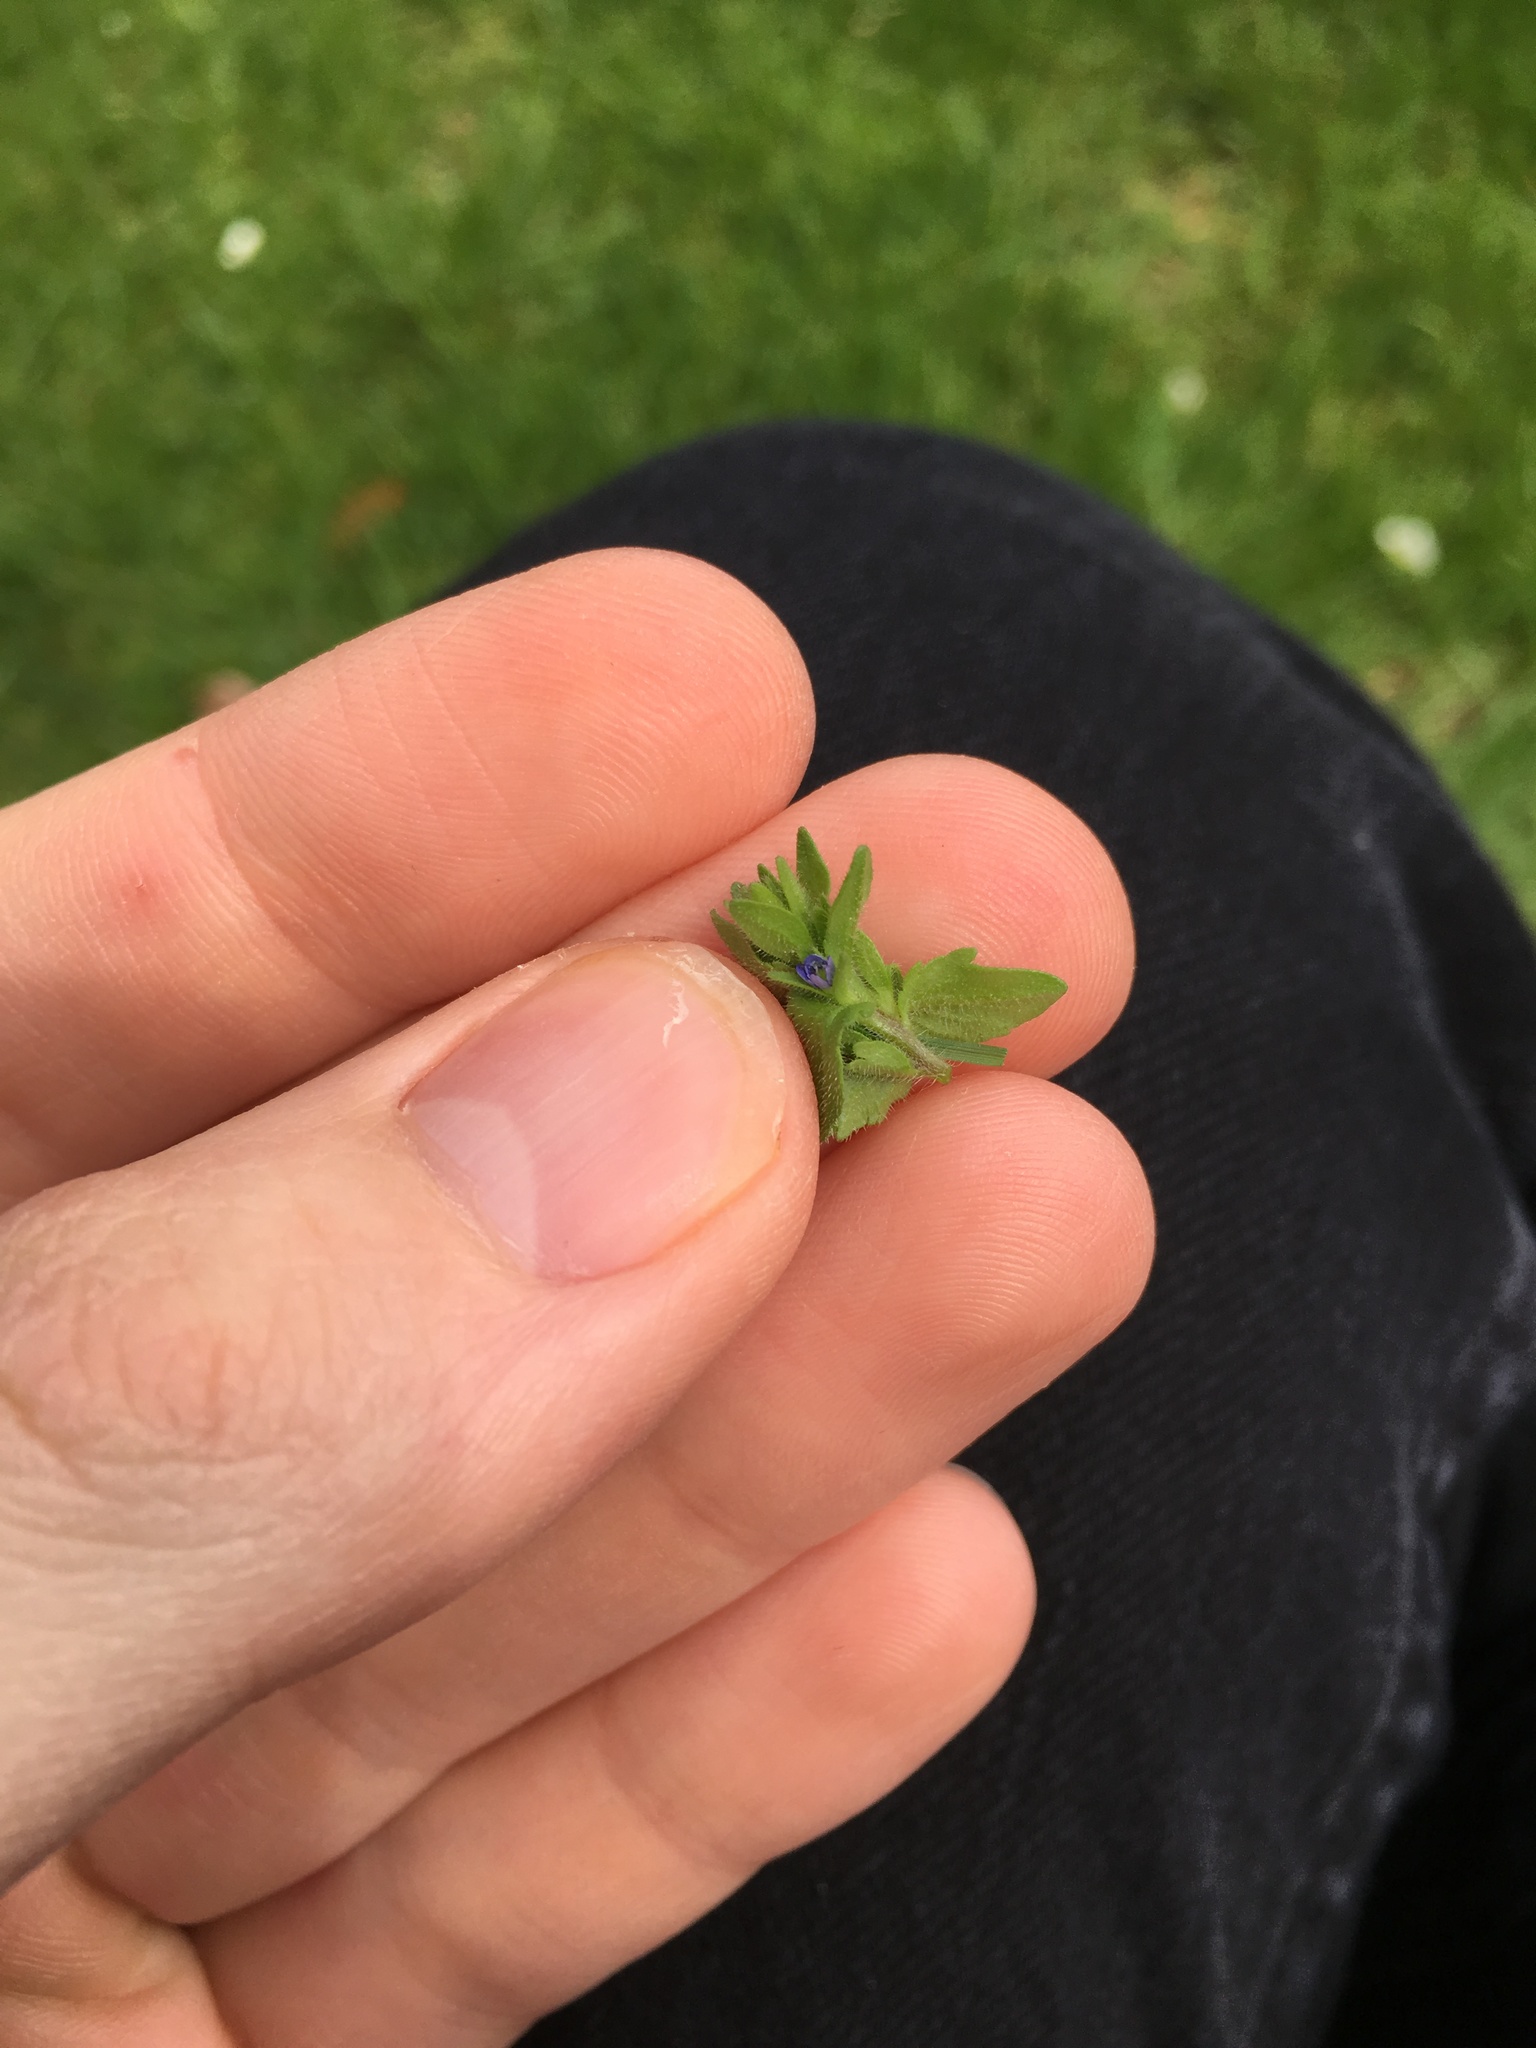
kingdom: Plantae
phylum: Tracheophyta
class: Magnoliopsida
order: Lamiales
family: Plantaginaceae
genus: Veronica
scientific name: Veronica arvensis
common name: Corn speedwell
